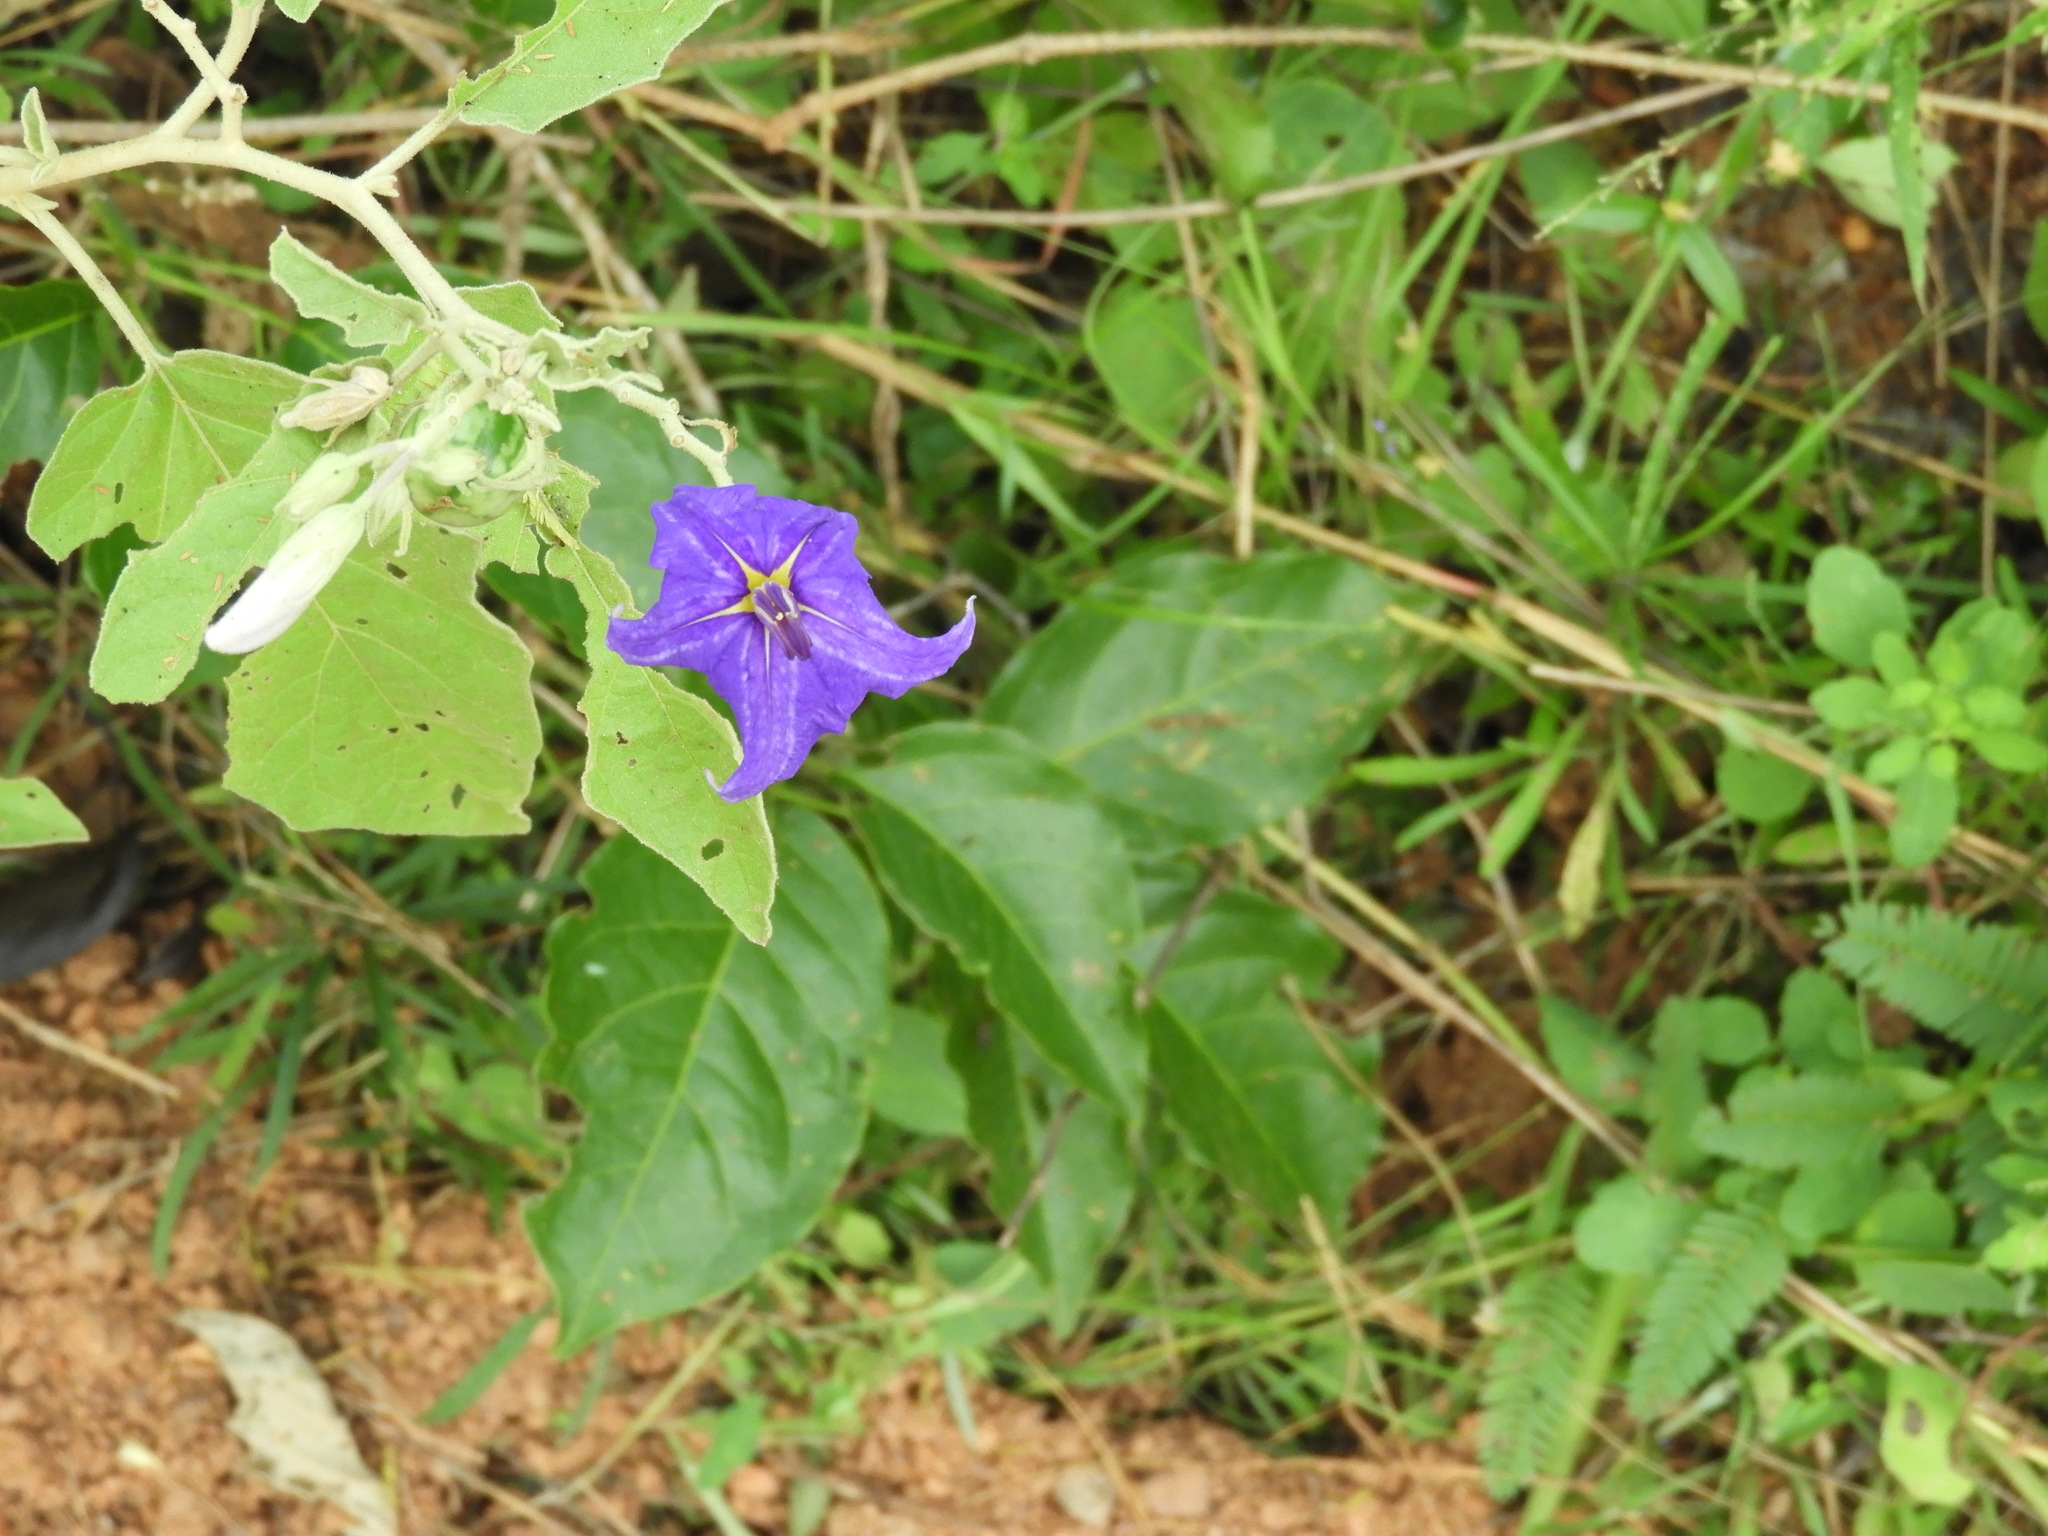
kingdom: Plantae
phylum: Tracheophyta
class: Magnoliopsida
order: Solanales
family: Solanaceae
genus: Solanum
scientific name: Solanum houstonii
